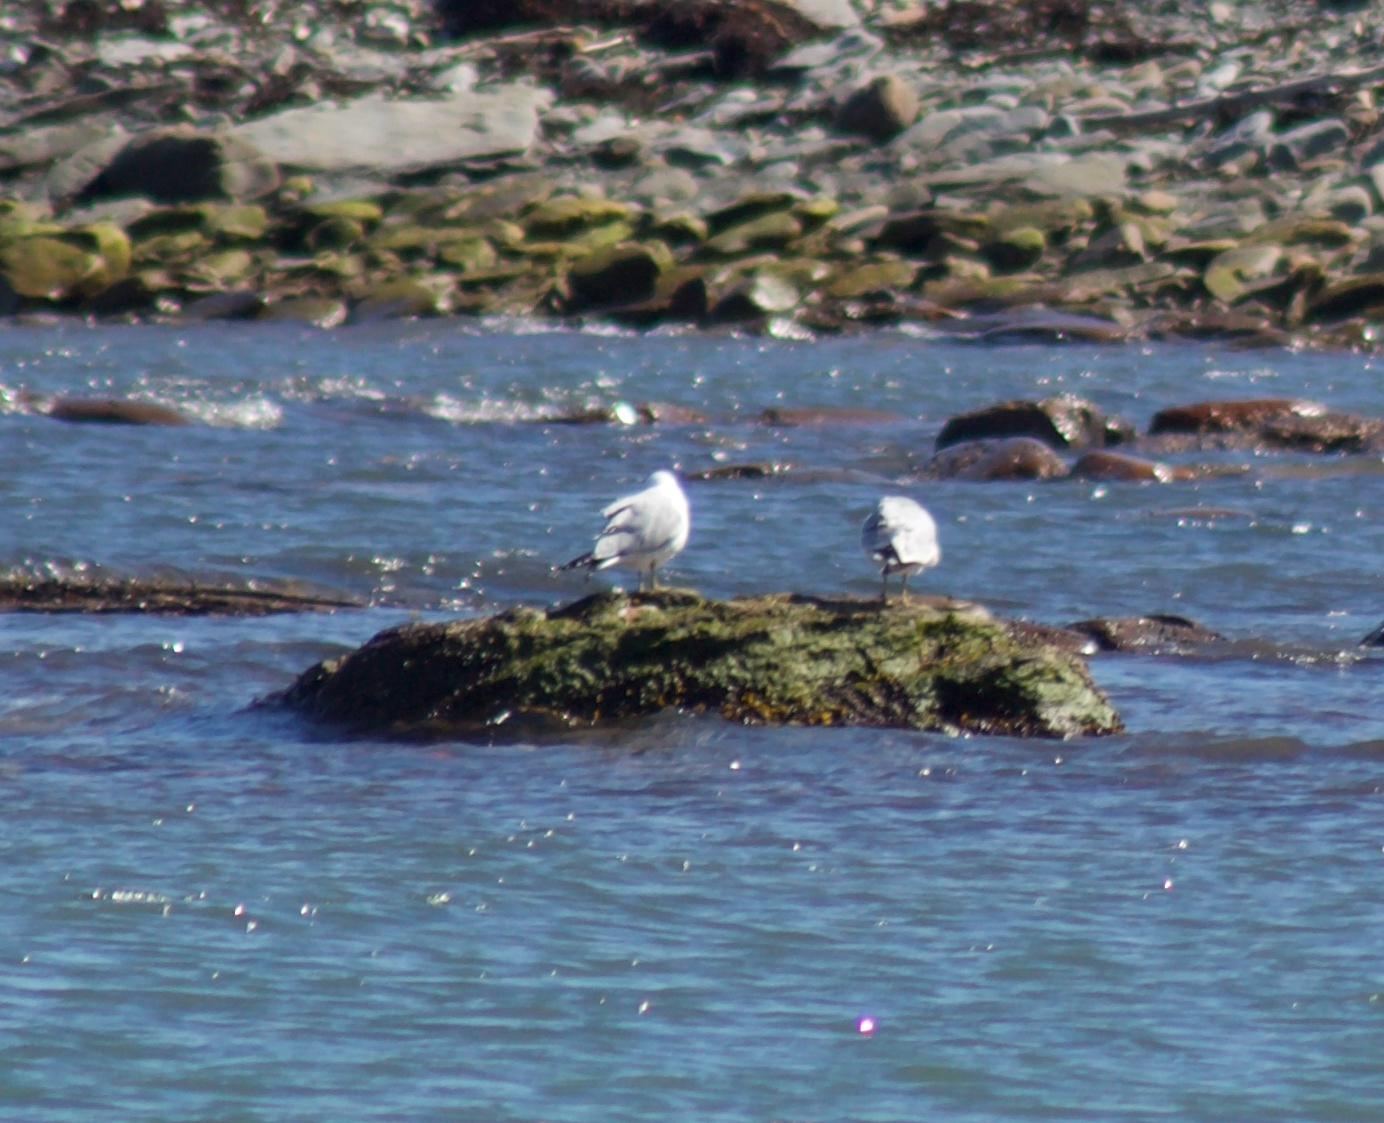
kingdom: Animalia
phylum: Chordata
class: Aves
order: Charadriiformes
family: Laridae
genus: Larus
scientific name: Larus argentatus
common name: Herring gull
